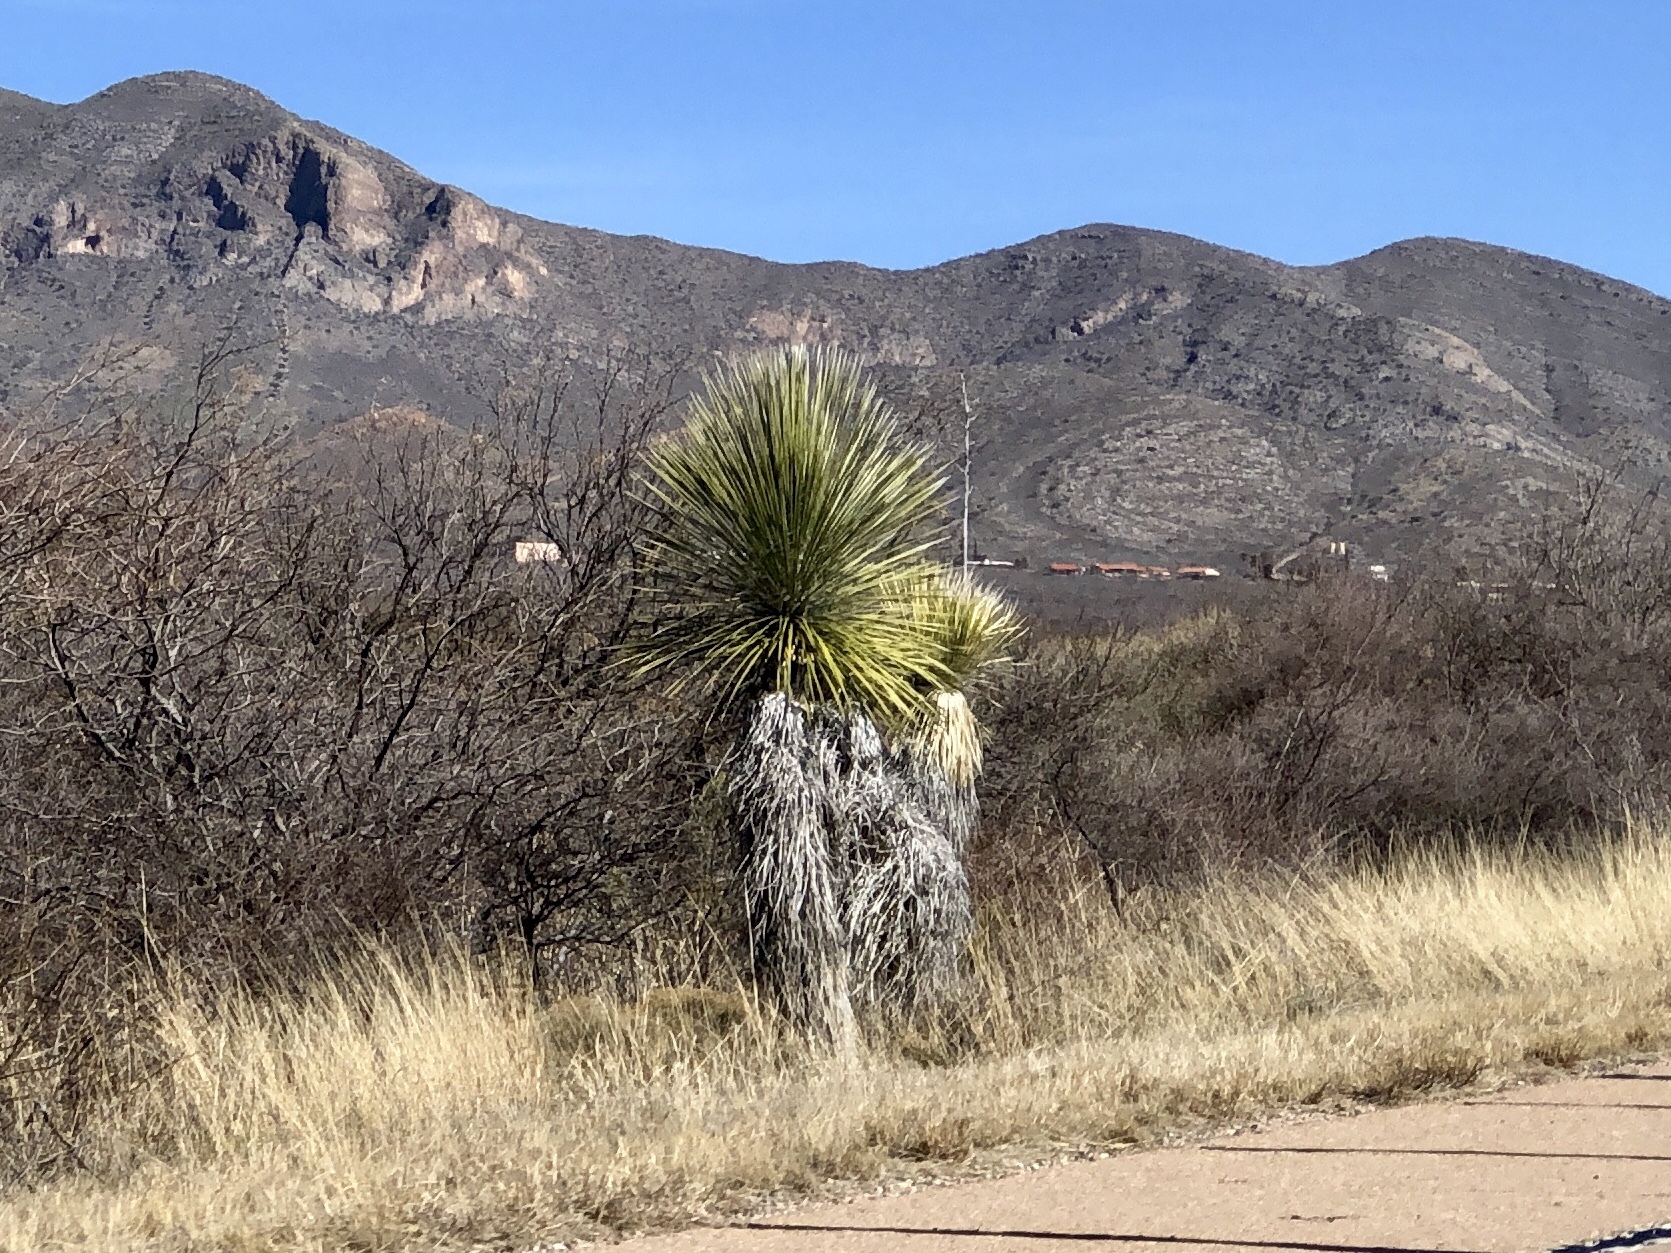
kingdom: Plantae
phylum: Tracheophyta
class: Liliopsida
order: Asparagales
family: Asparagaceae
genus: Yucca
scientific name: Yucca elata
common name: Palmella
